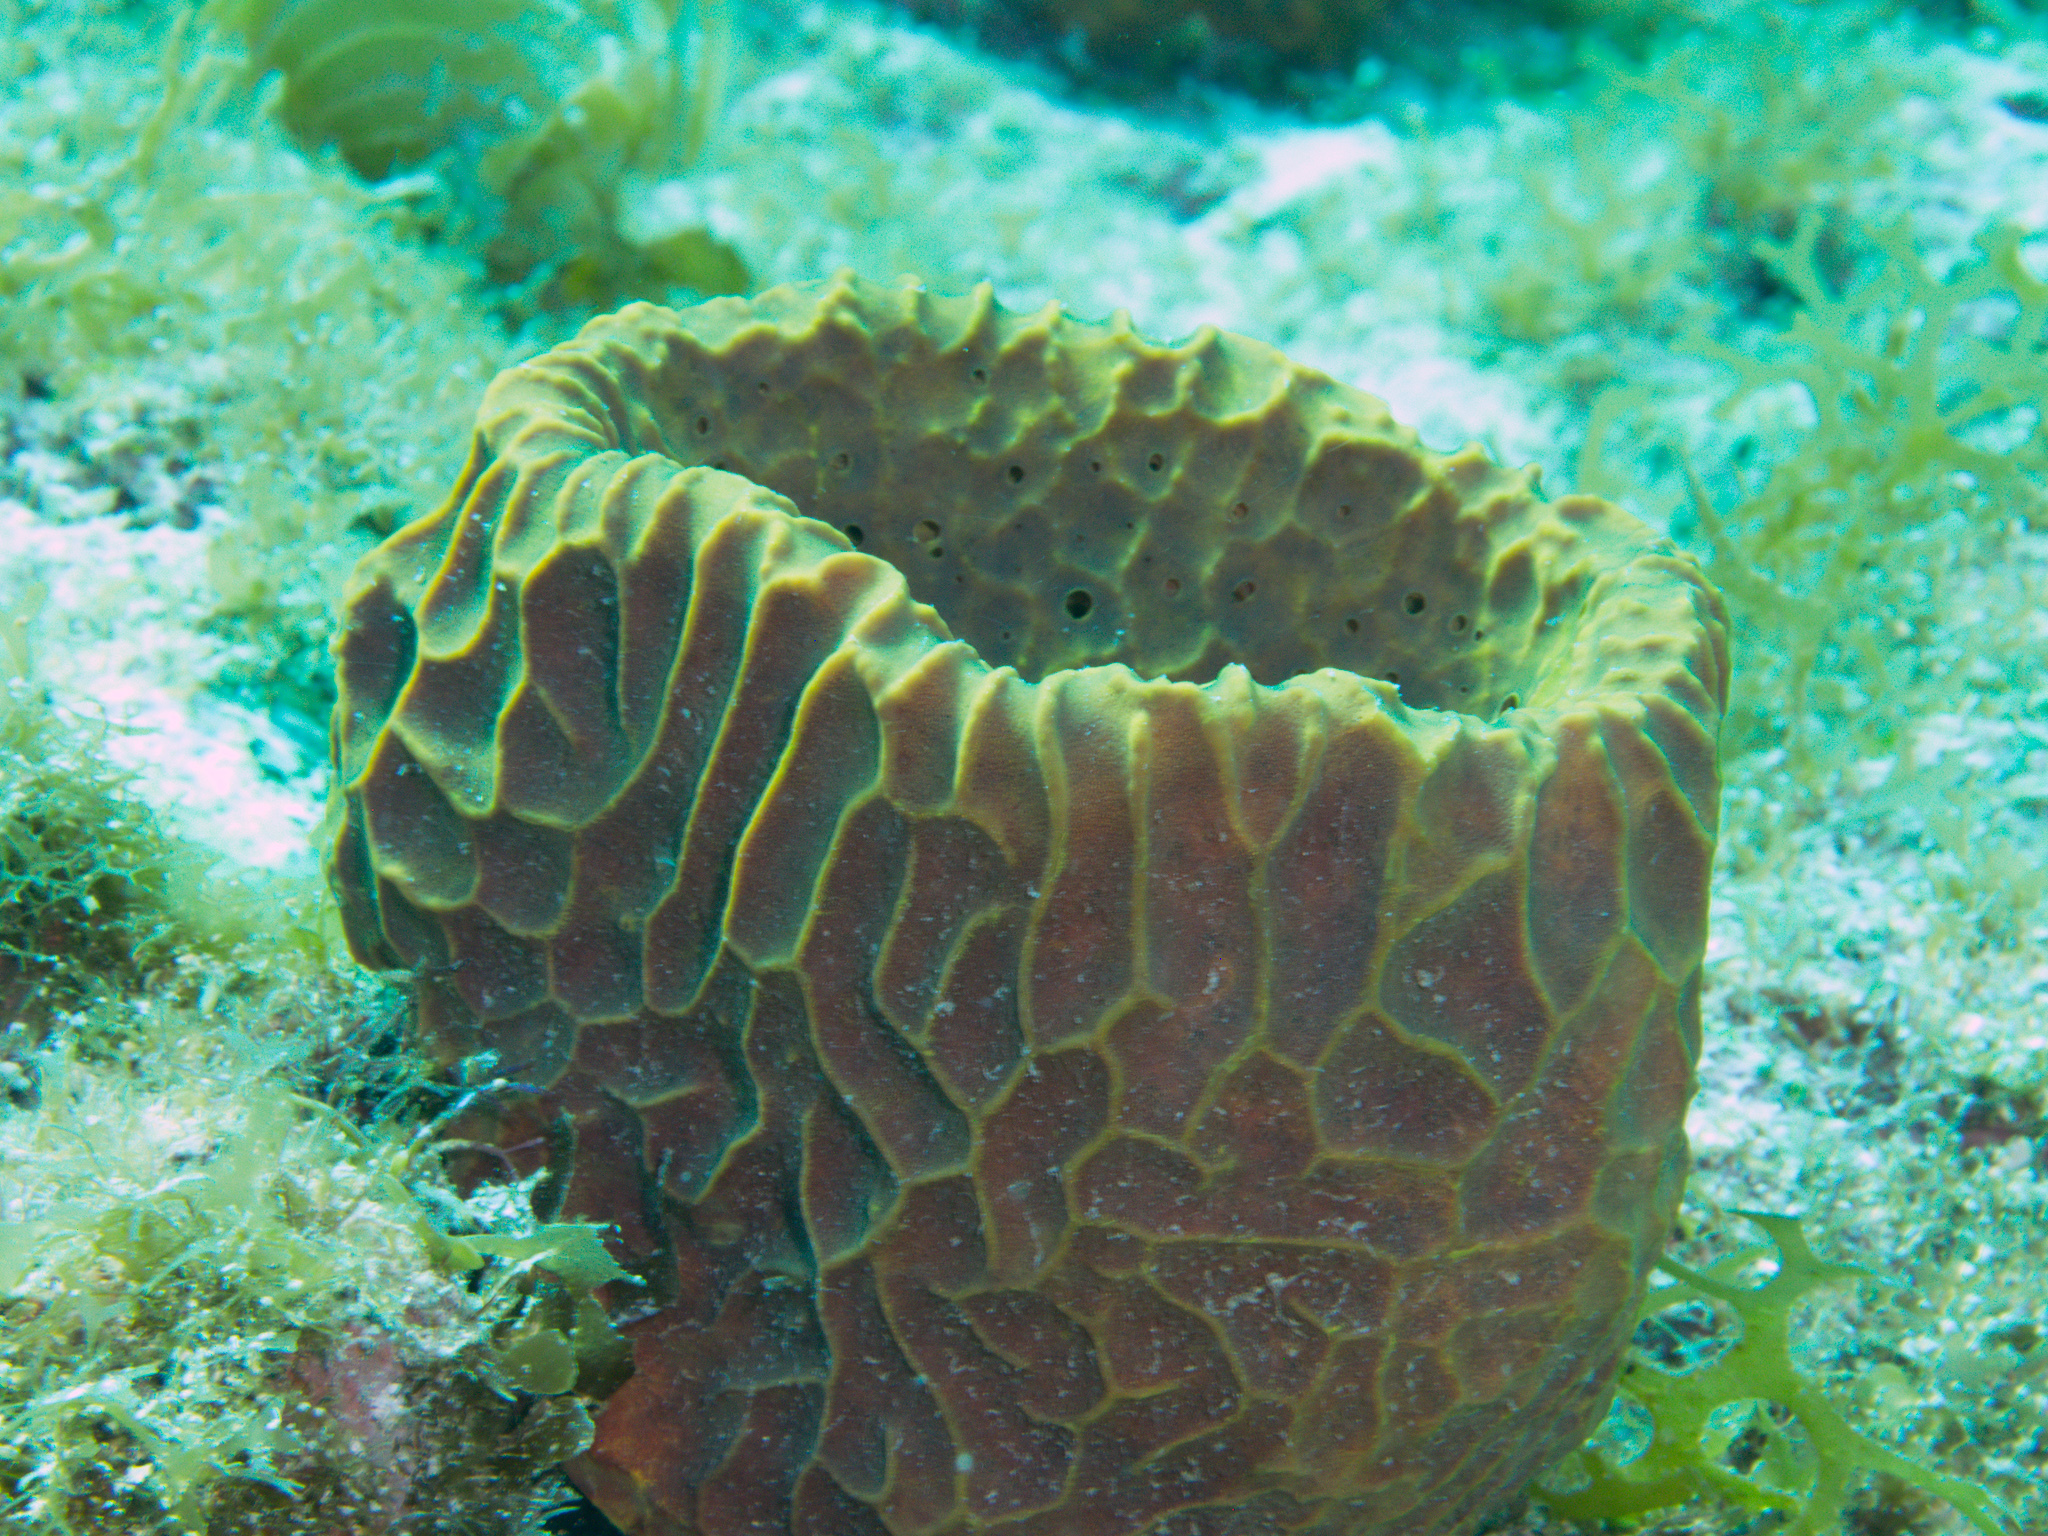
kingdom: Animalia
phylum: Porifera
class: Demospongiae
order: Verongiida
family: Aplysinidae
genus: Verongula
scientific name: Verongula gigantea
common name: Netted barrel sponge
